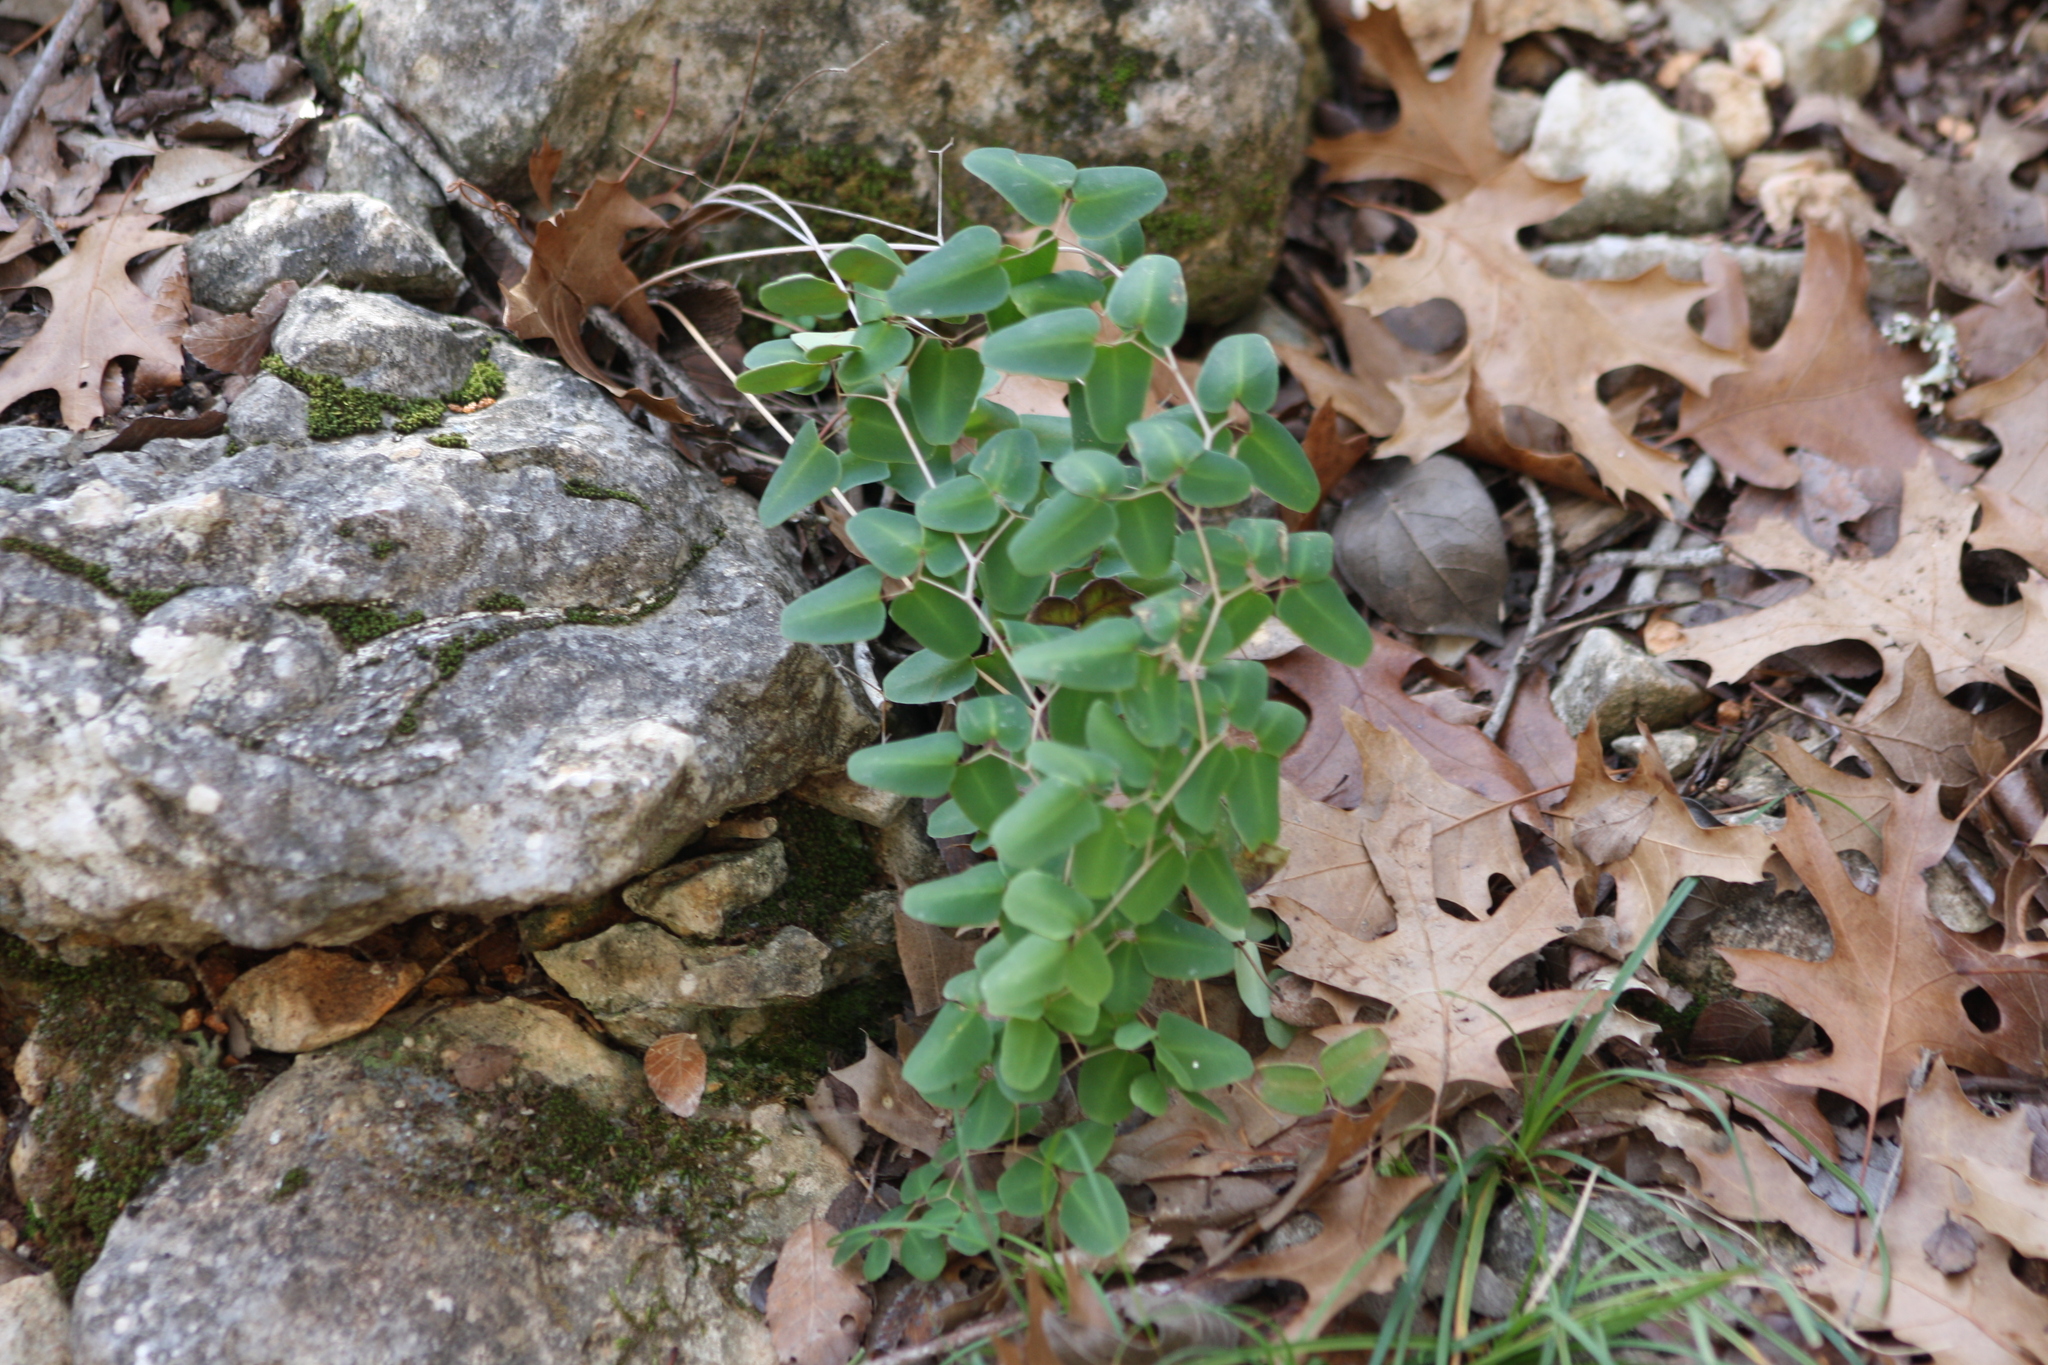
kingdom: Plantae
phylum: Tracheophyta
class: Polypodiopsida
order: Polypodiales
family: Pteridaceae
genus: Pellaea
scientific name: Pellaea ovata
